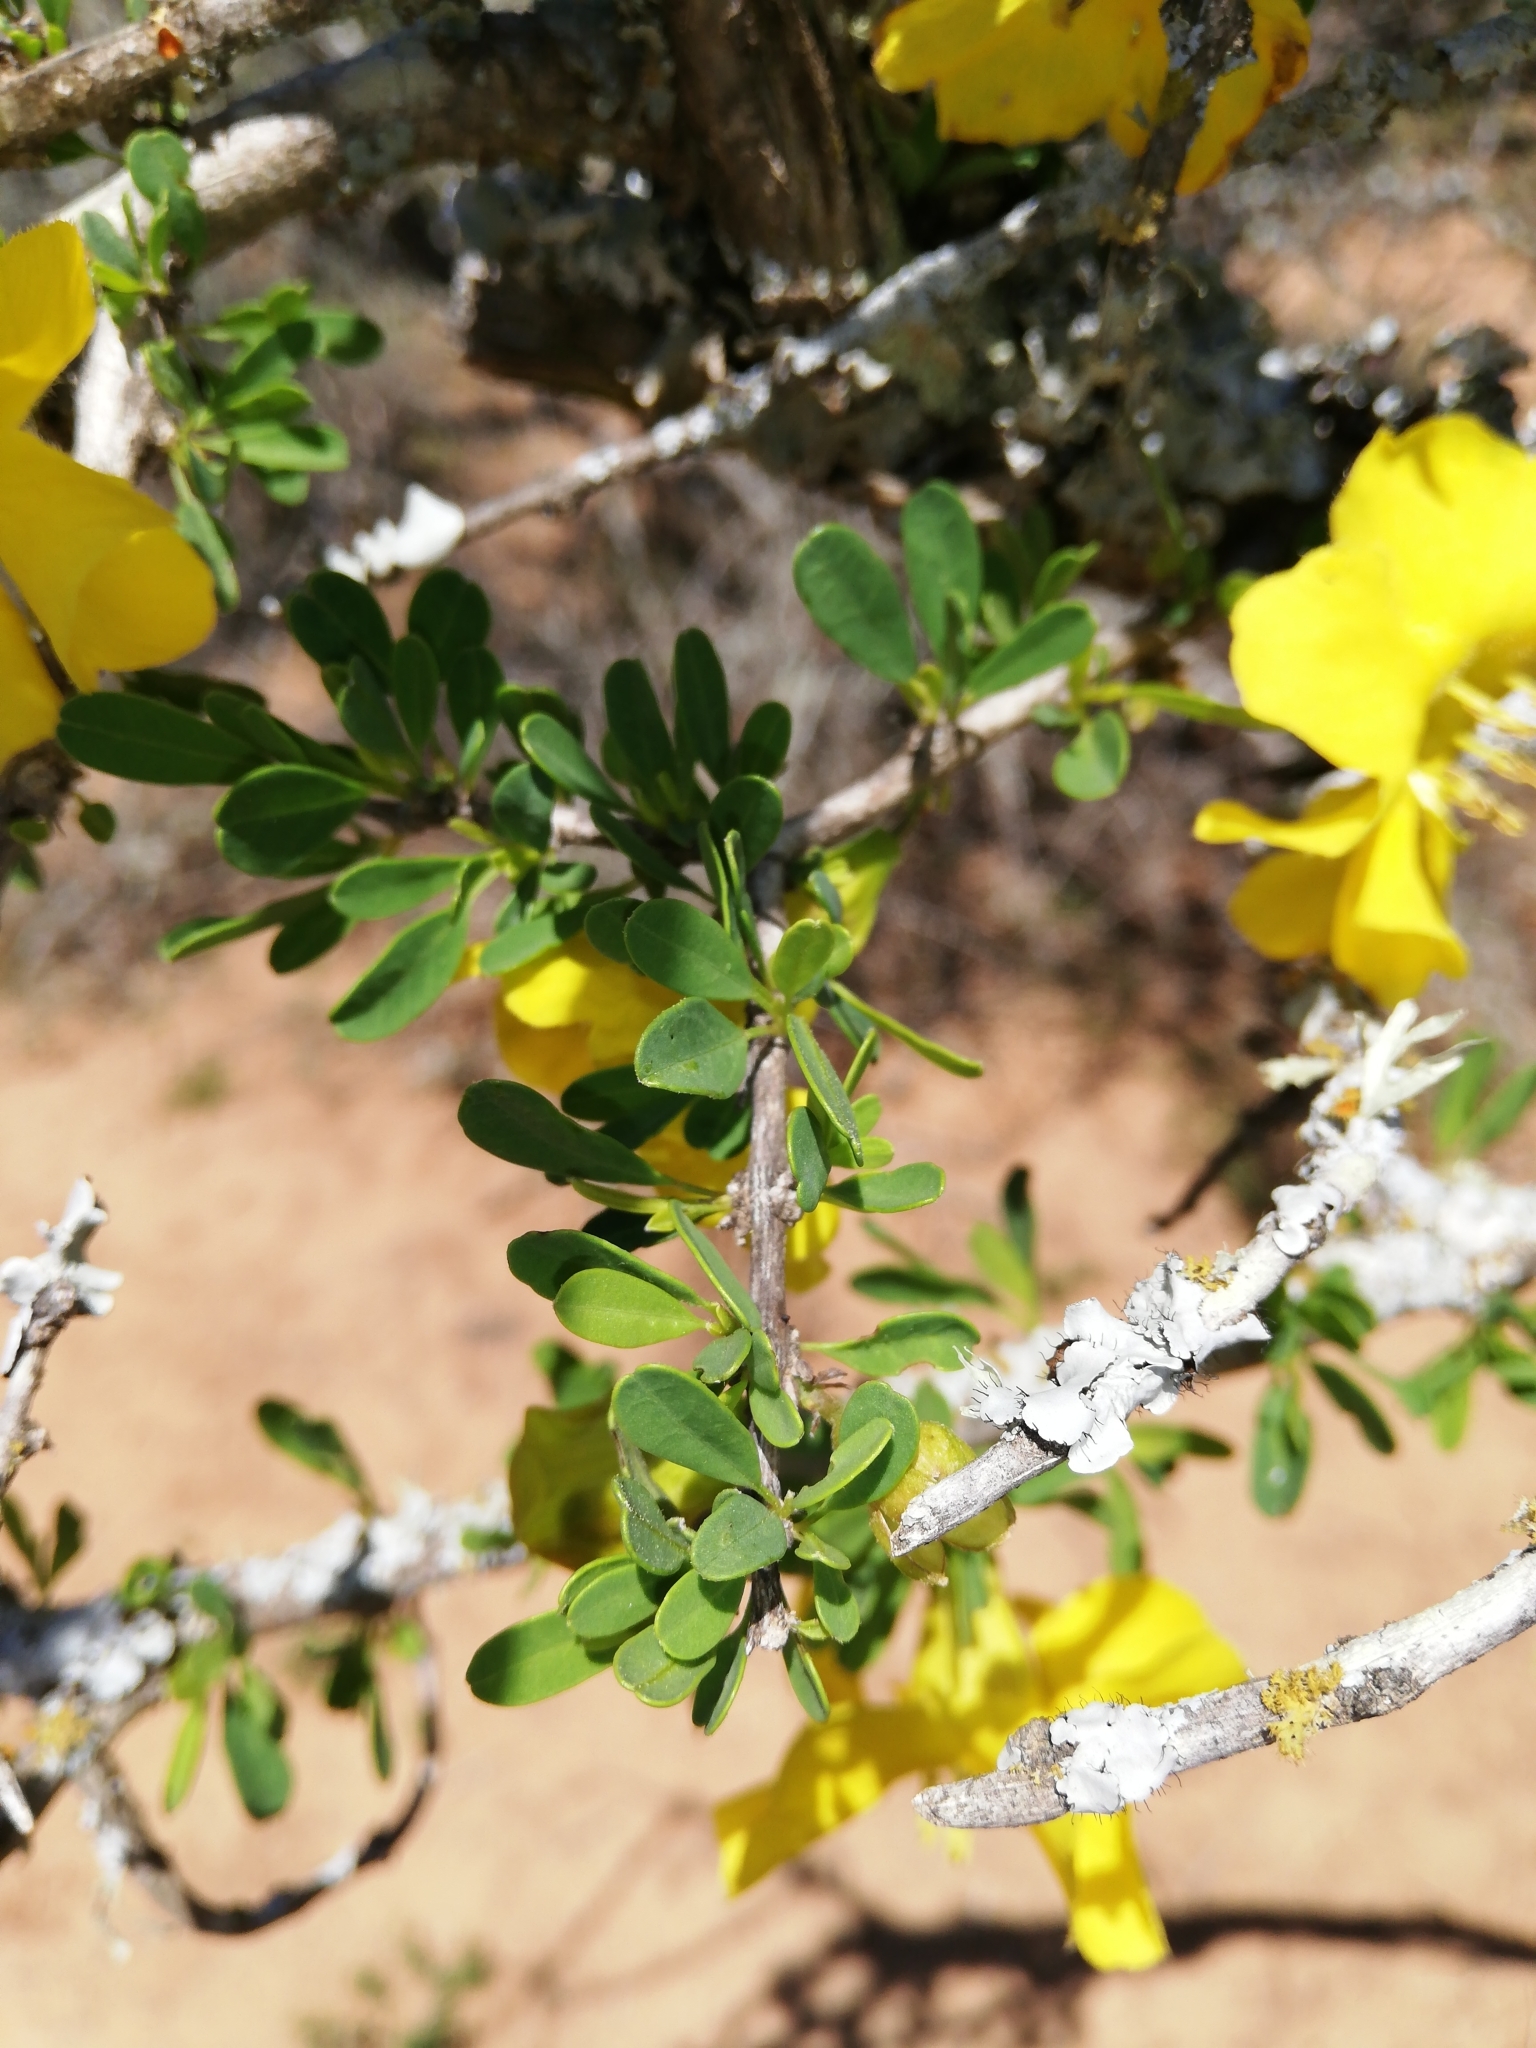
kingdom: Plantae
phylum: Tracheophyta
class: Magnoliopsida
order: Lamiales
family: Bignoniaceae
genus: Rhigozum
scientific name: Rhigozum obovatum
